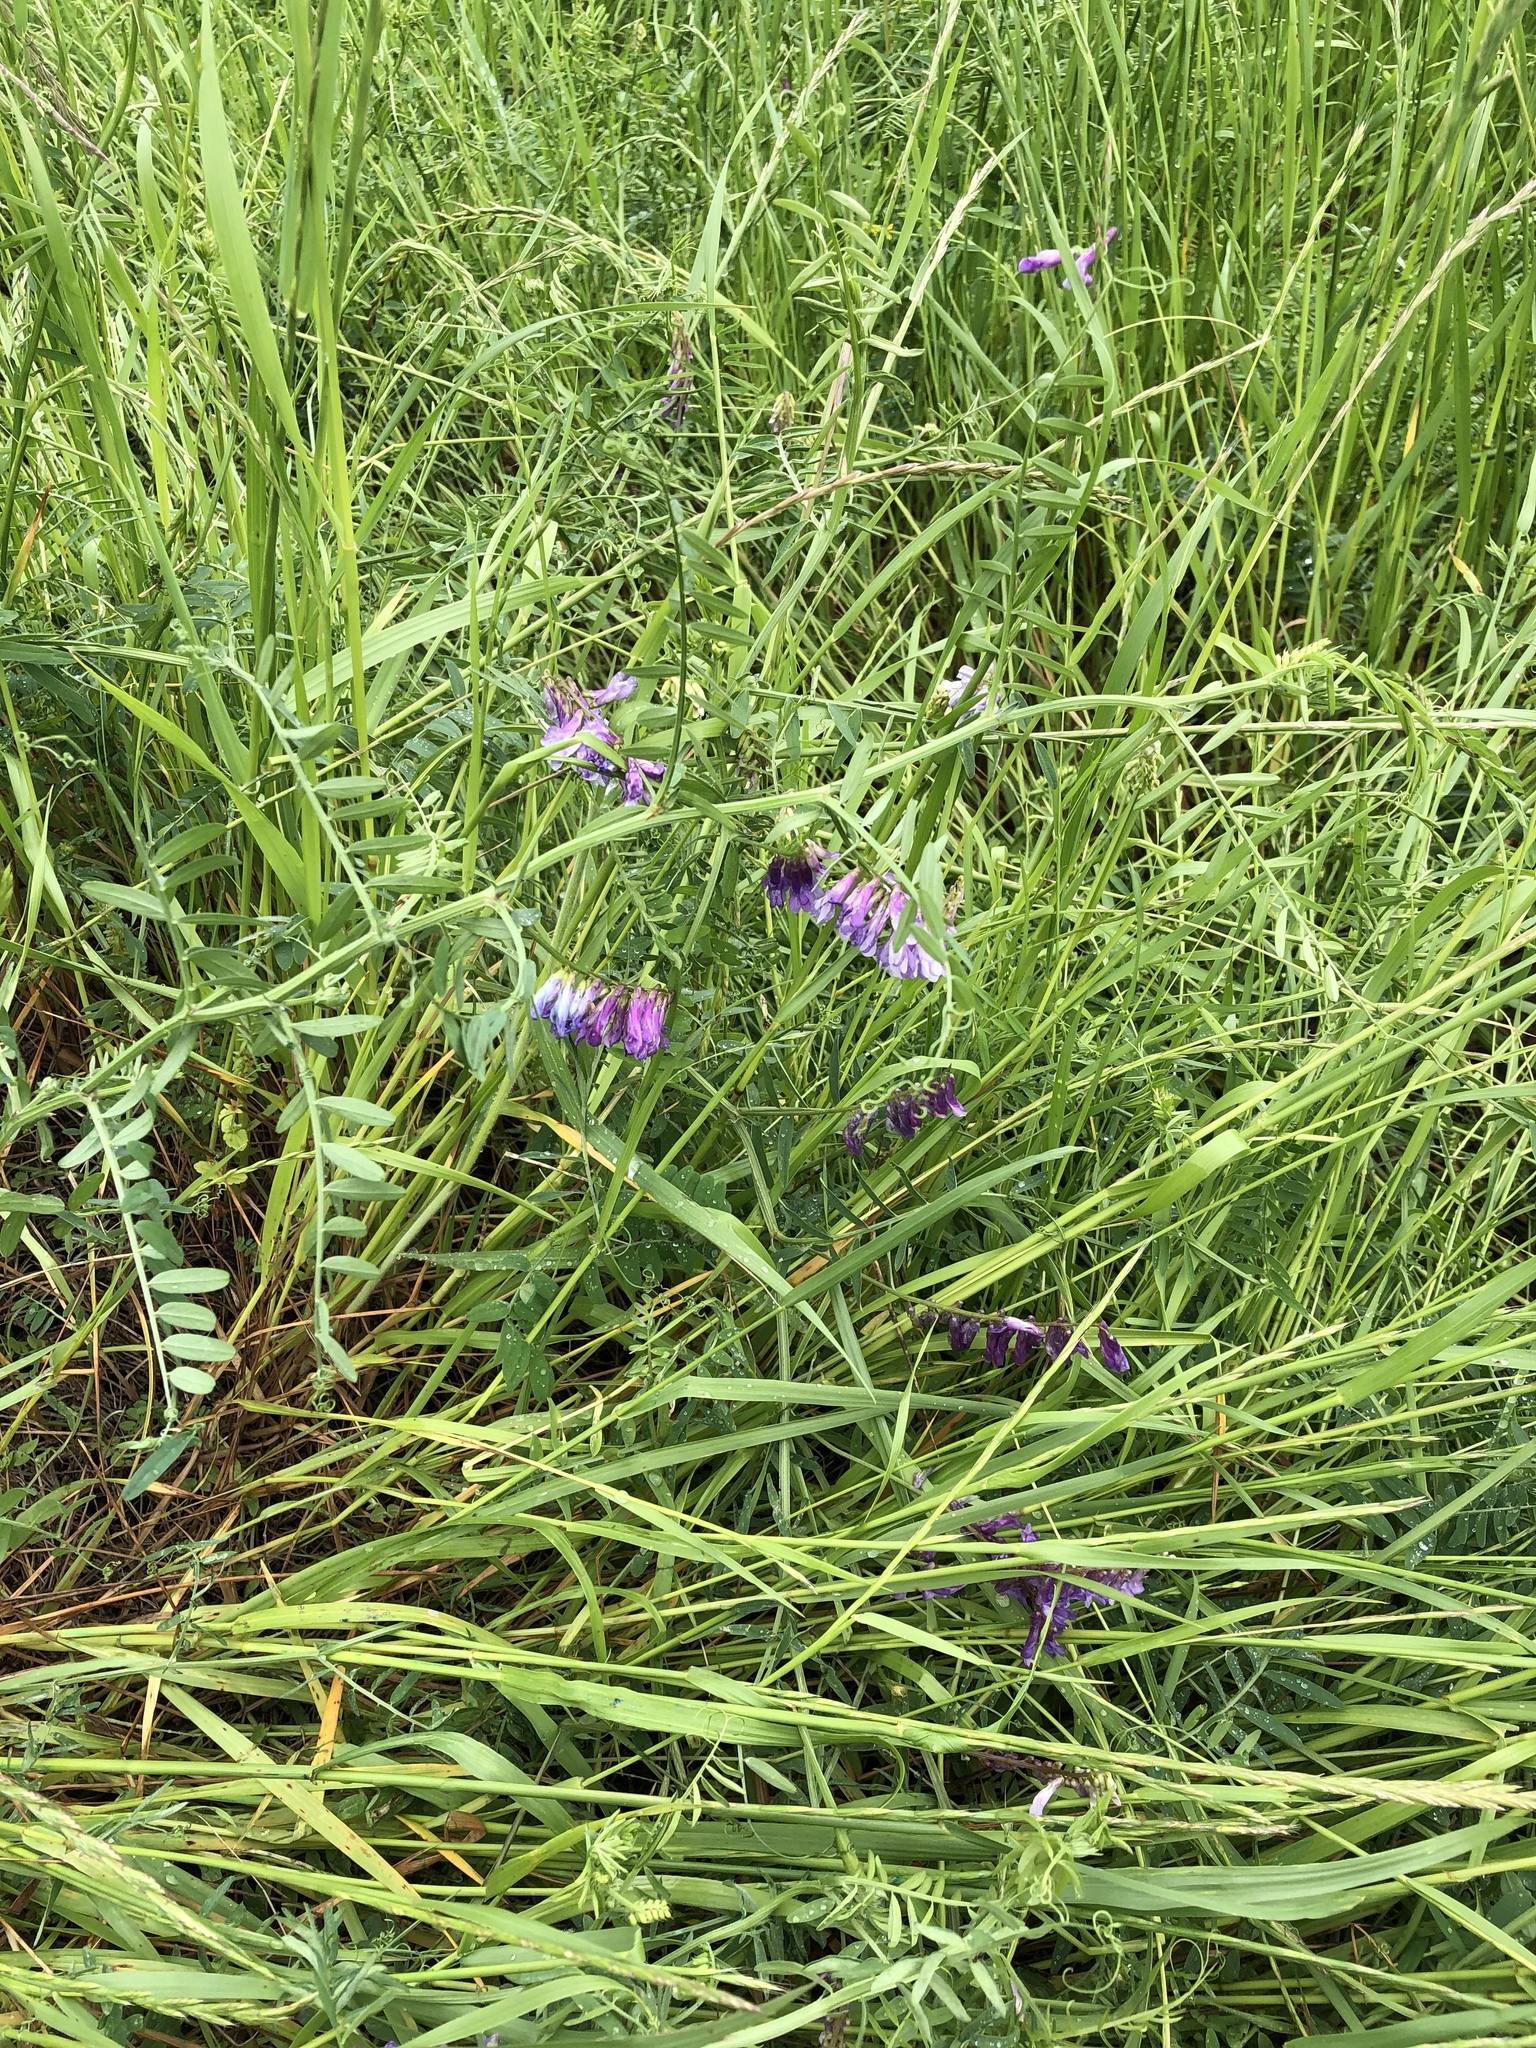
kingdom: Plantae
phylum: Tracheophyta
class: Magnoliopsida
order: Fabales
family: Fabaceae
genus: Vicia
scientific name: Vicia villosa
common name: Fodder vetch
